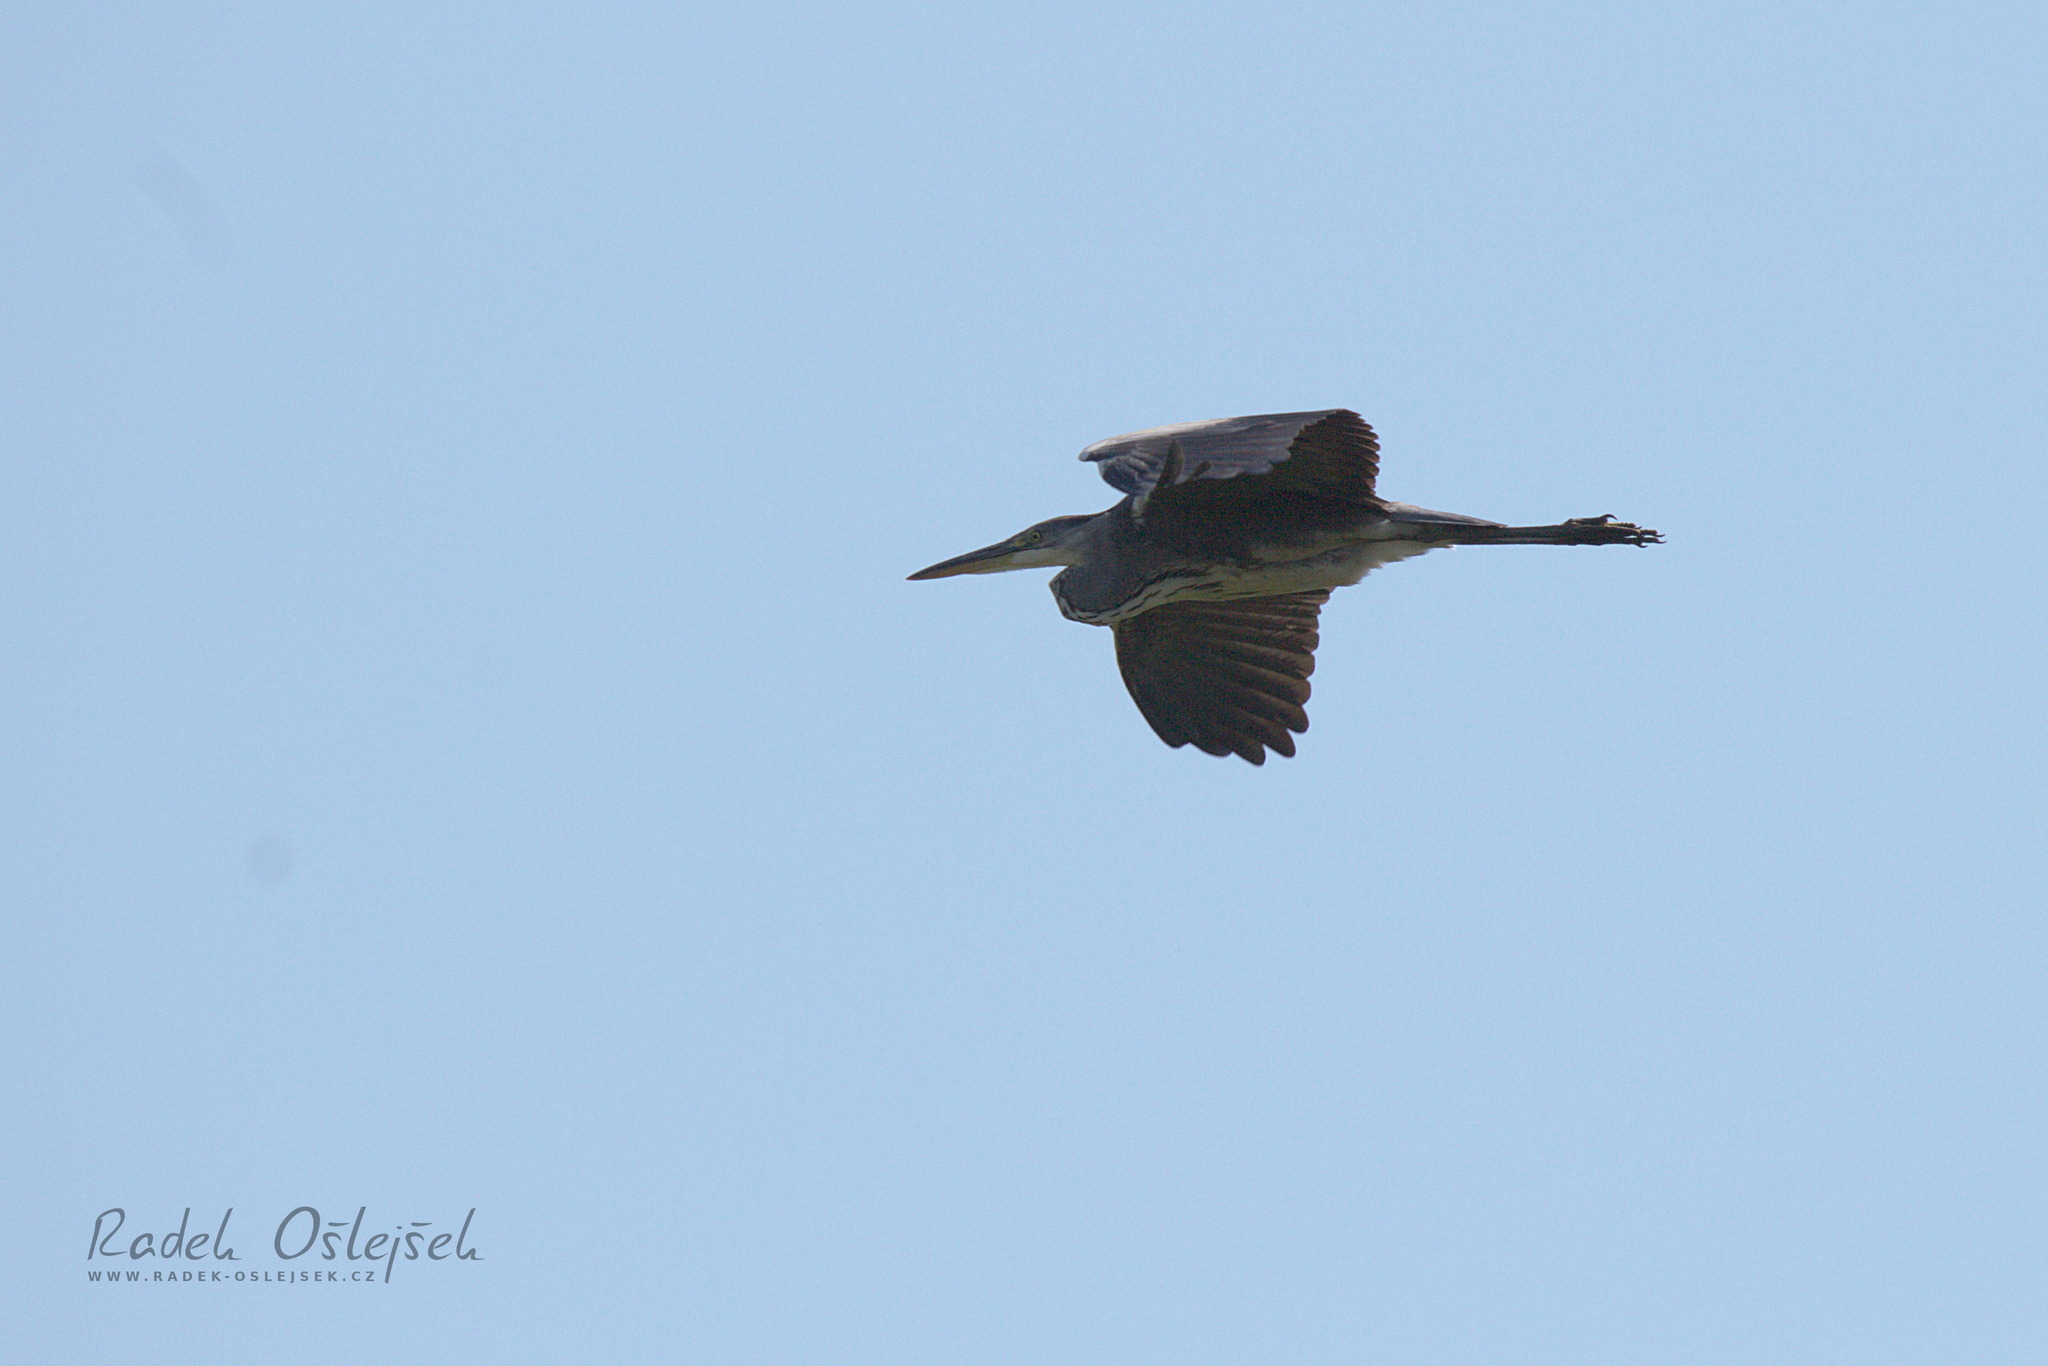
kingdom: Animalia
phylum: Chordata
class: Aves
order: Pelecaniformes
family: Ardeidae
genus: Ardea
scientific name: Ardea cinerea
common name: Grey heron
